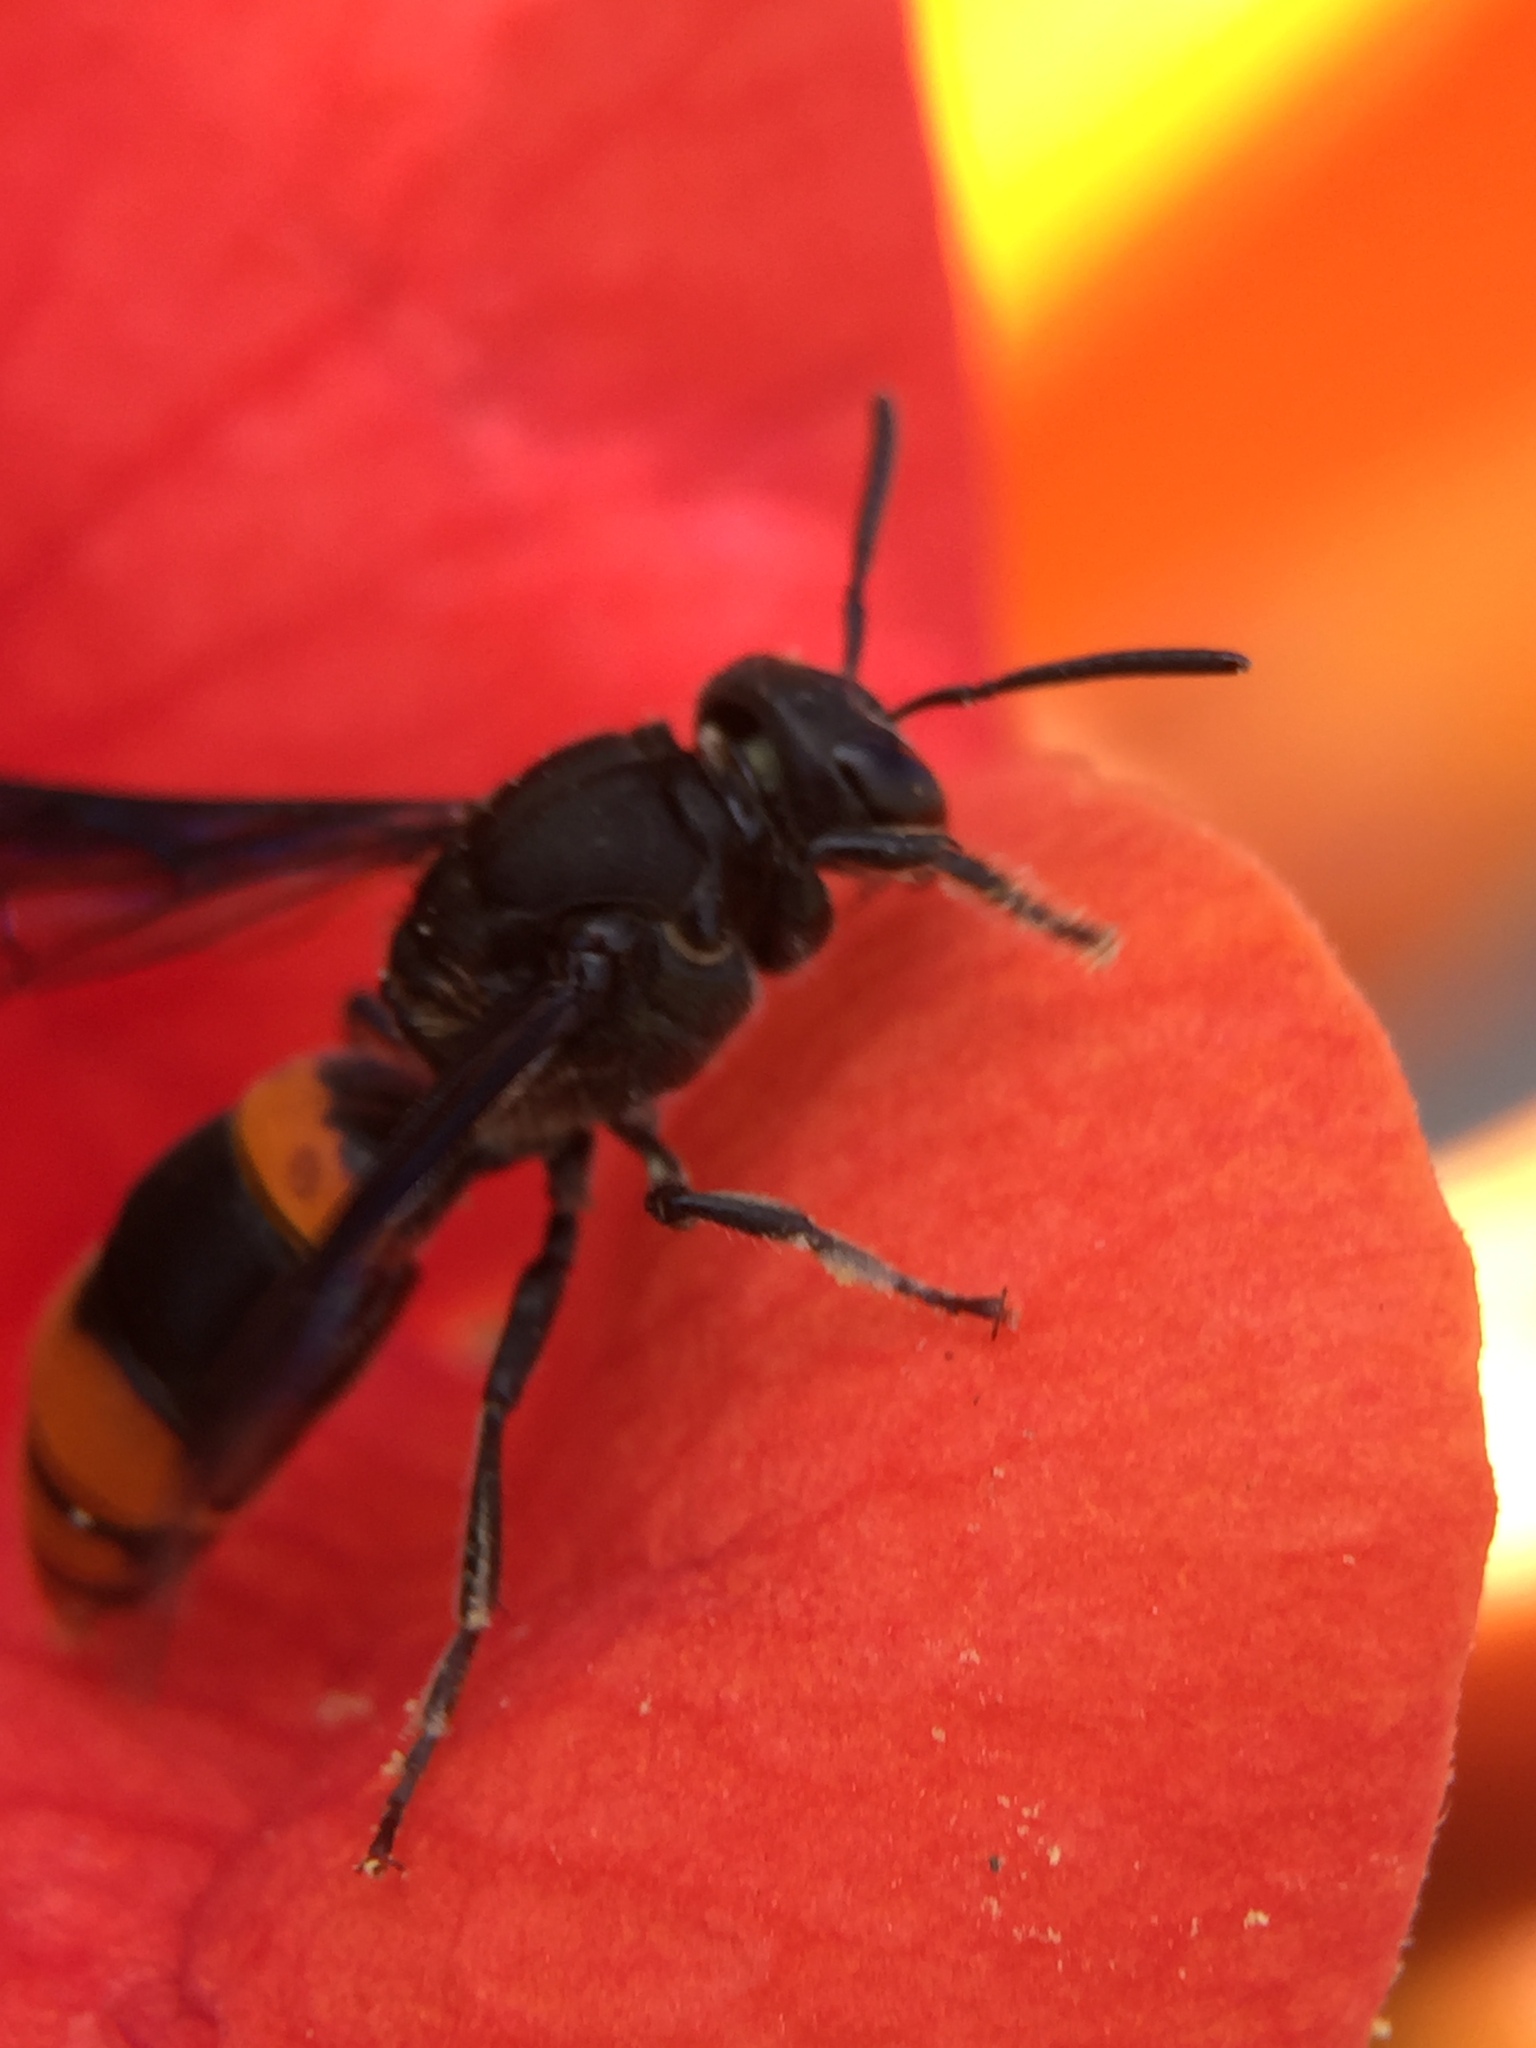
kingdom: Animalia
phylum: Arthropoda
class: Insecta
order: Hymenoptera
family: Colletidae
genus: Hyleoides
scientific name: Hyleoides concinna
